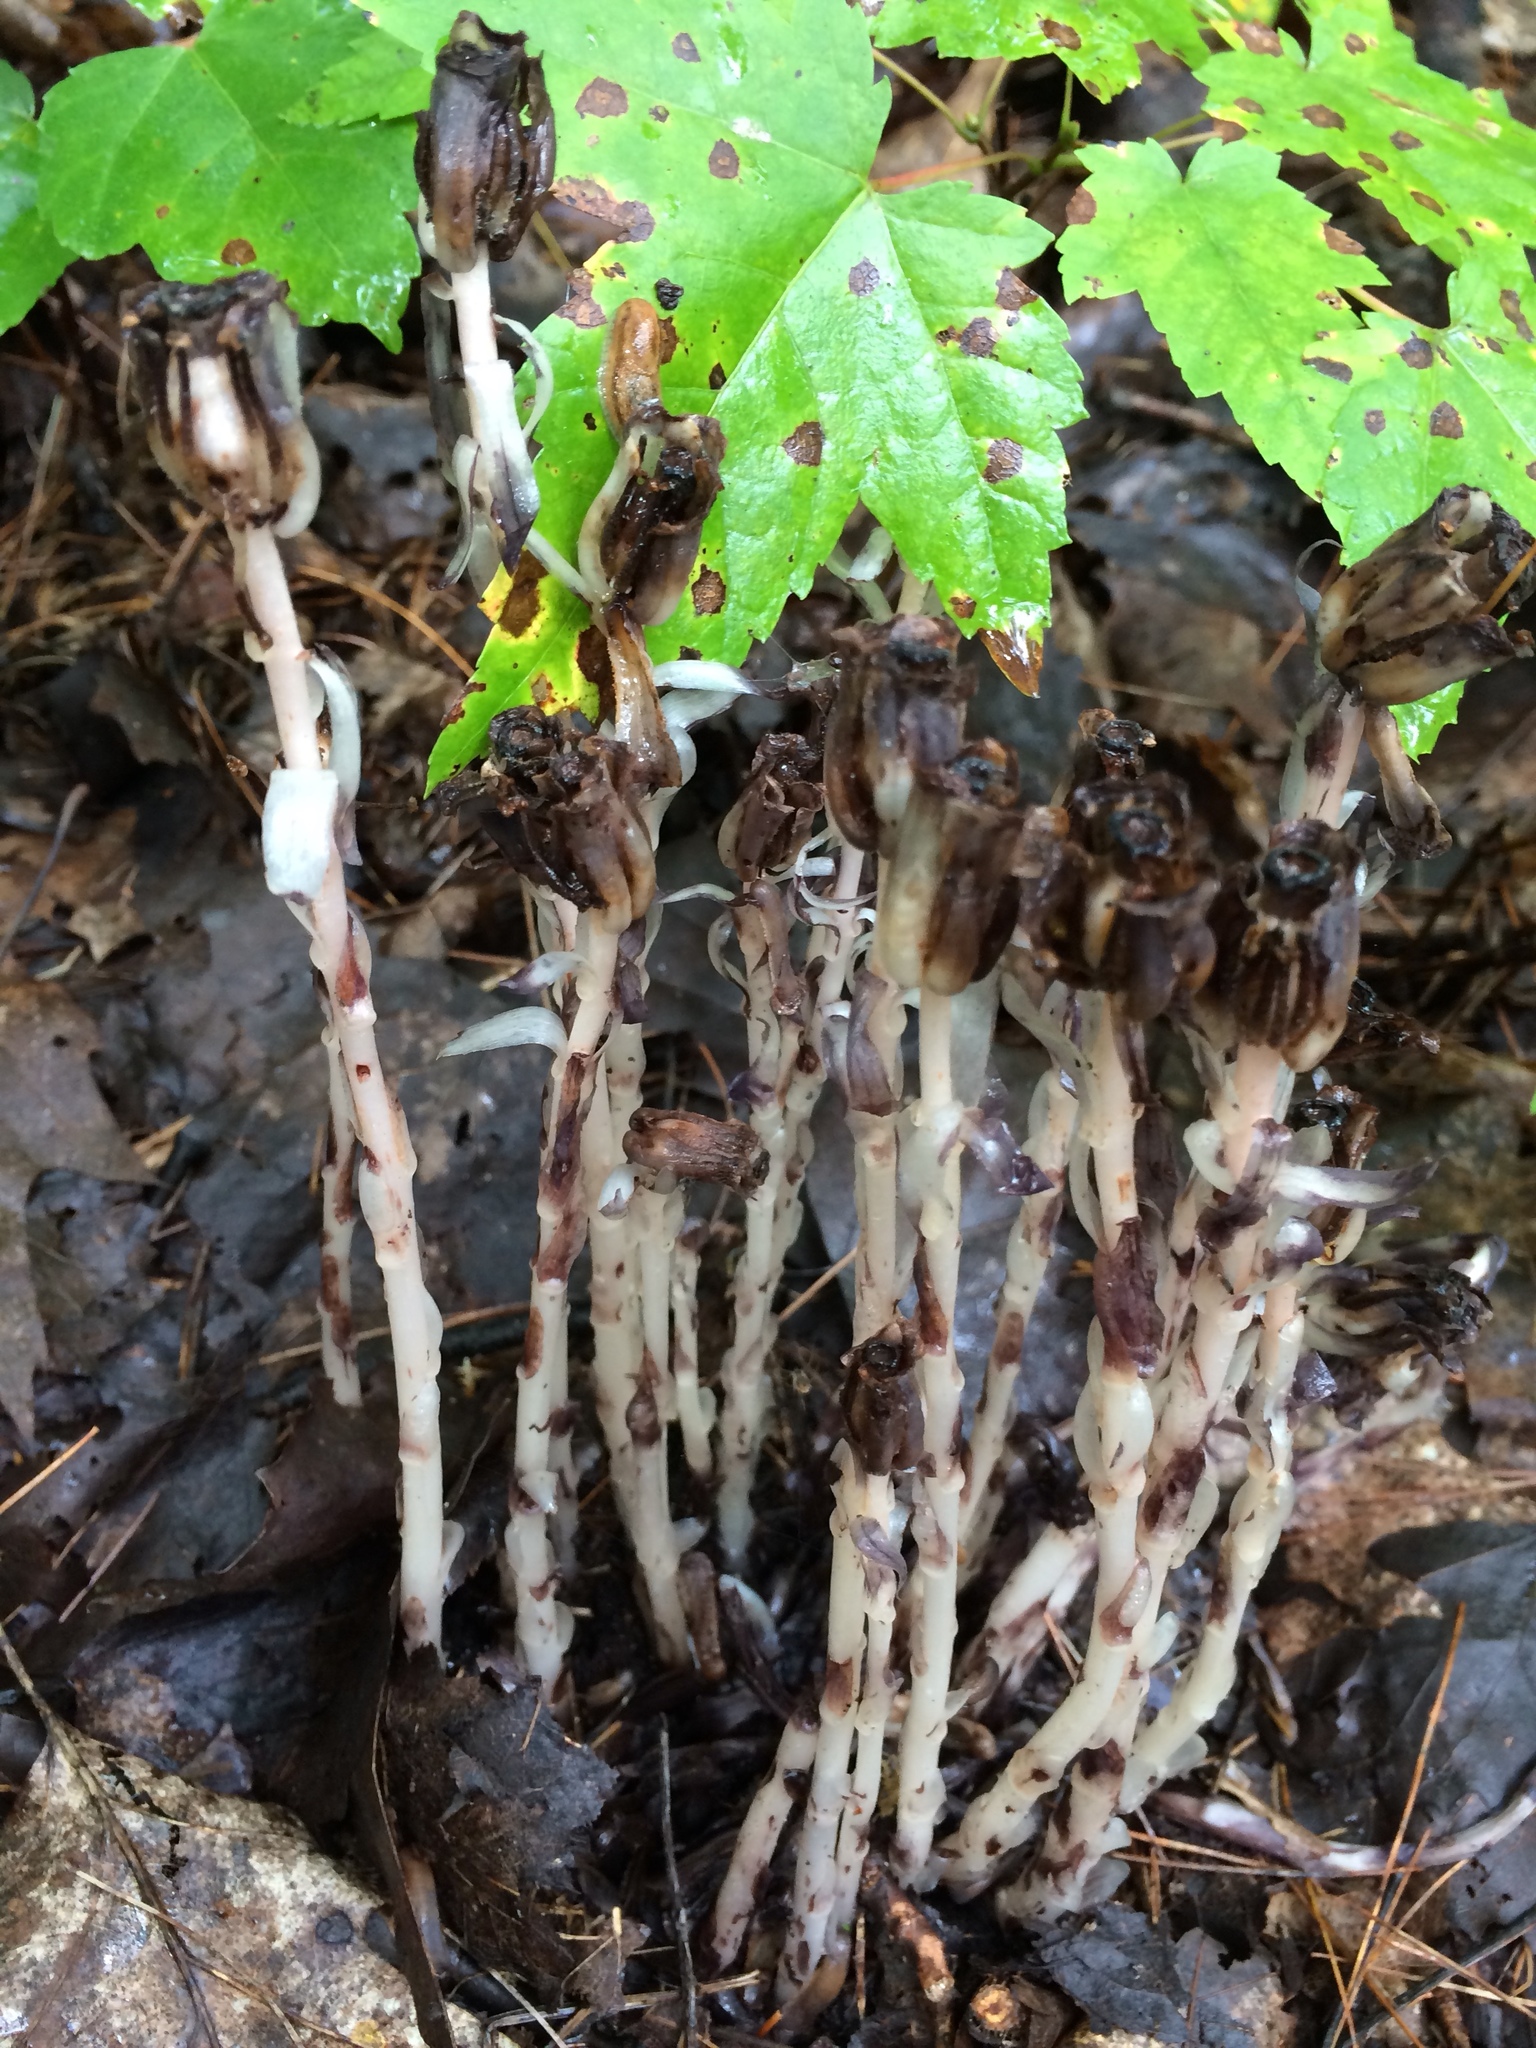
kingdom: Plantae
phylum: Tracheophyta
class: Magnoliopsida
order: Ericales
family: Ericaceae
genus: Monotropa
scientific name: Monotropa uniflora
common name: Convulsion root
